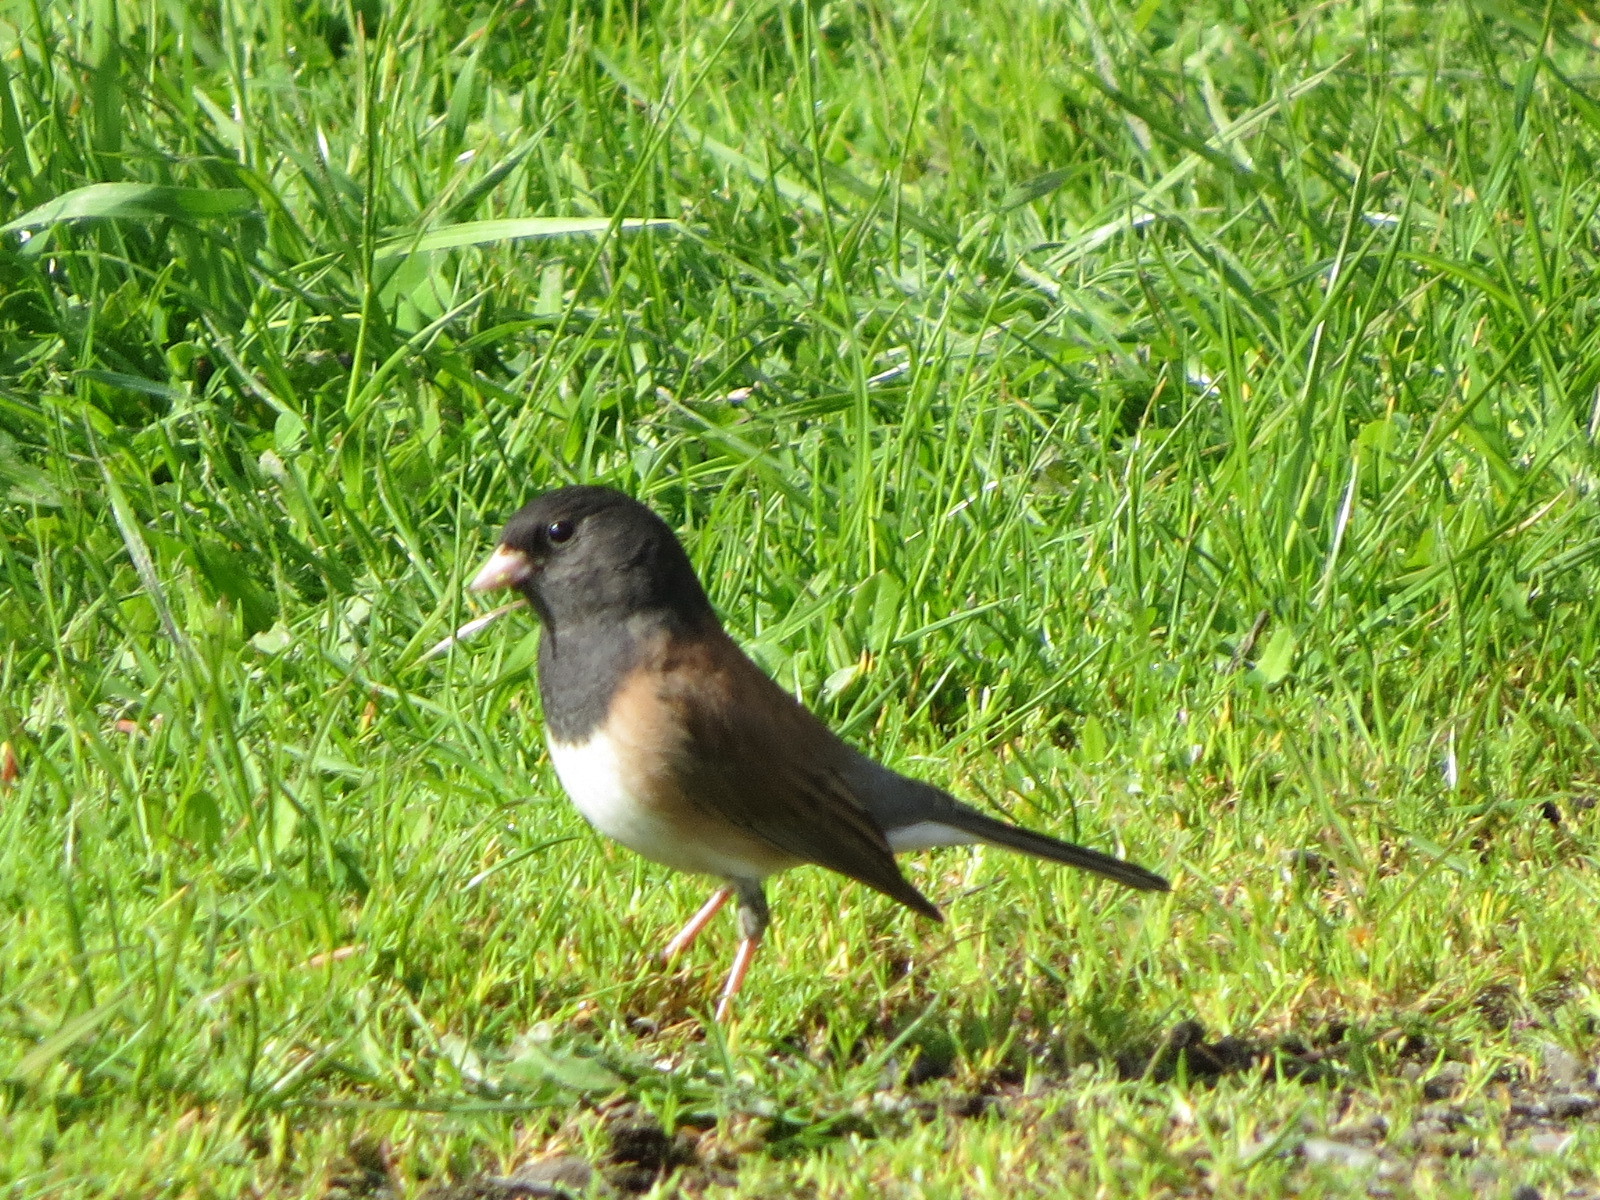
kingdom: Animalia
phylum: Chordata
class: Aves
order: Passeriformes
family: Passerellidae
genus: Junco
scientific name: Junco hyemalis
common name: Dark-eyed junco
